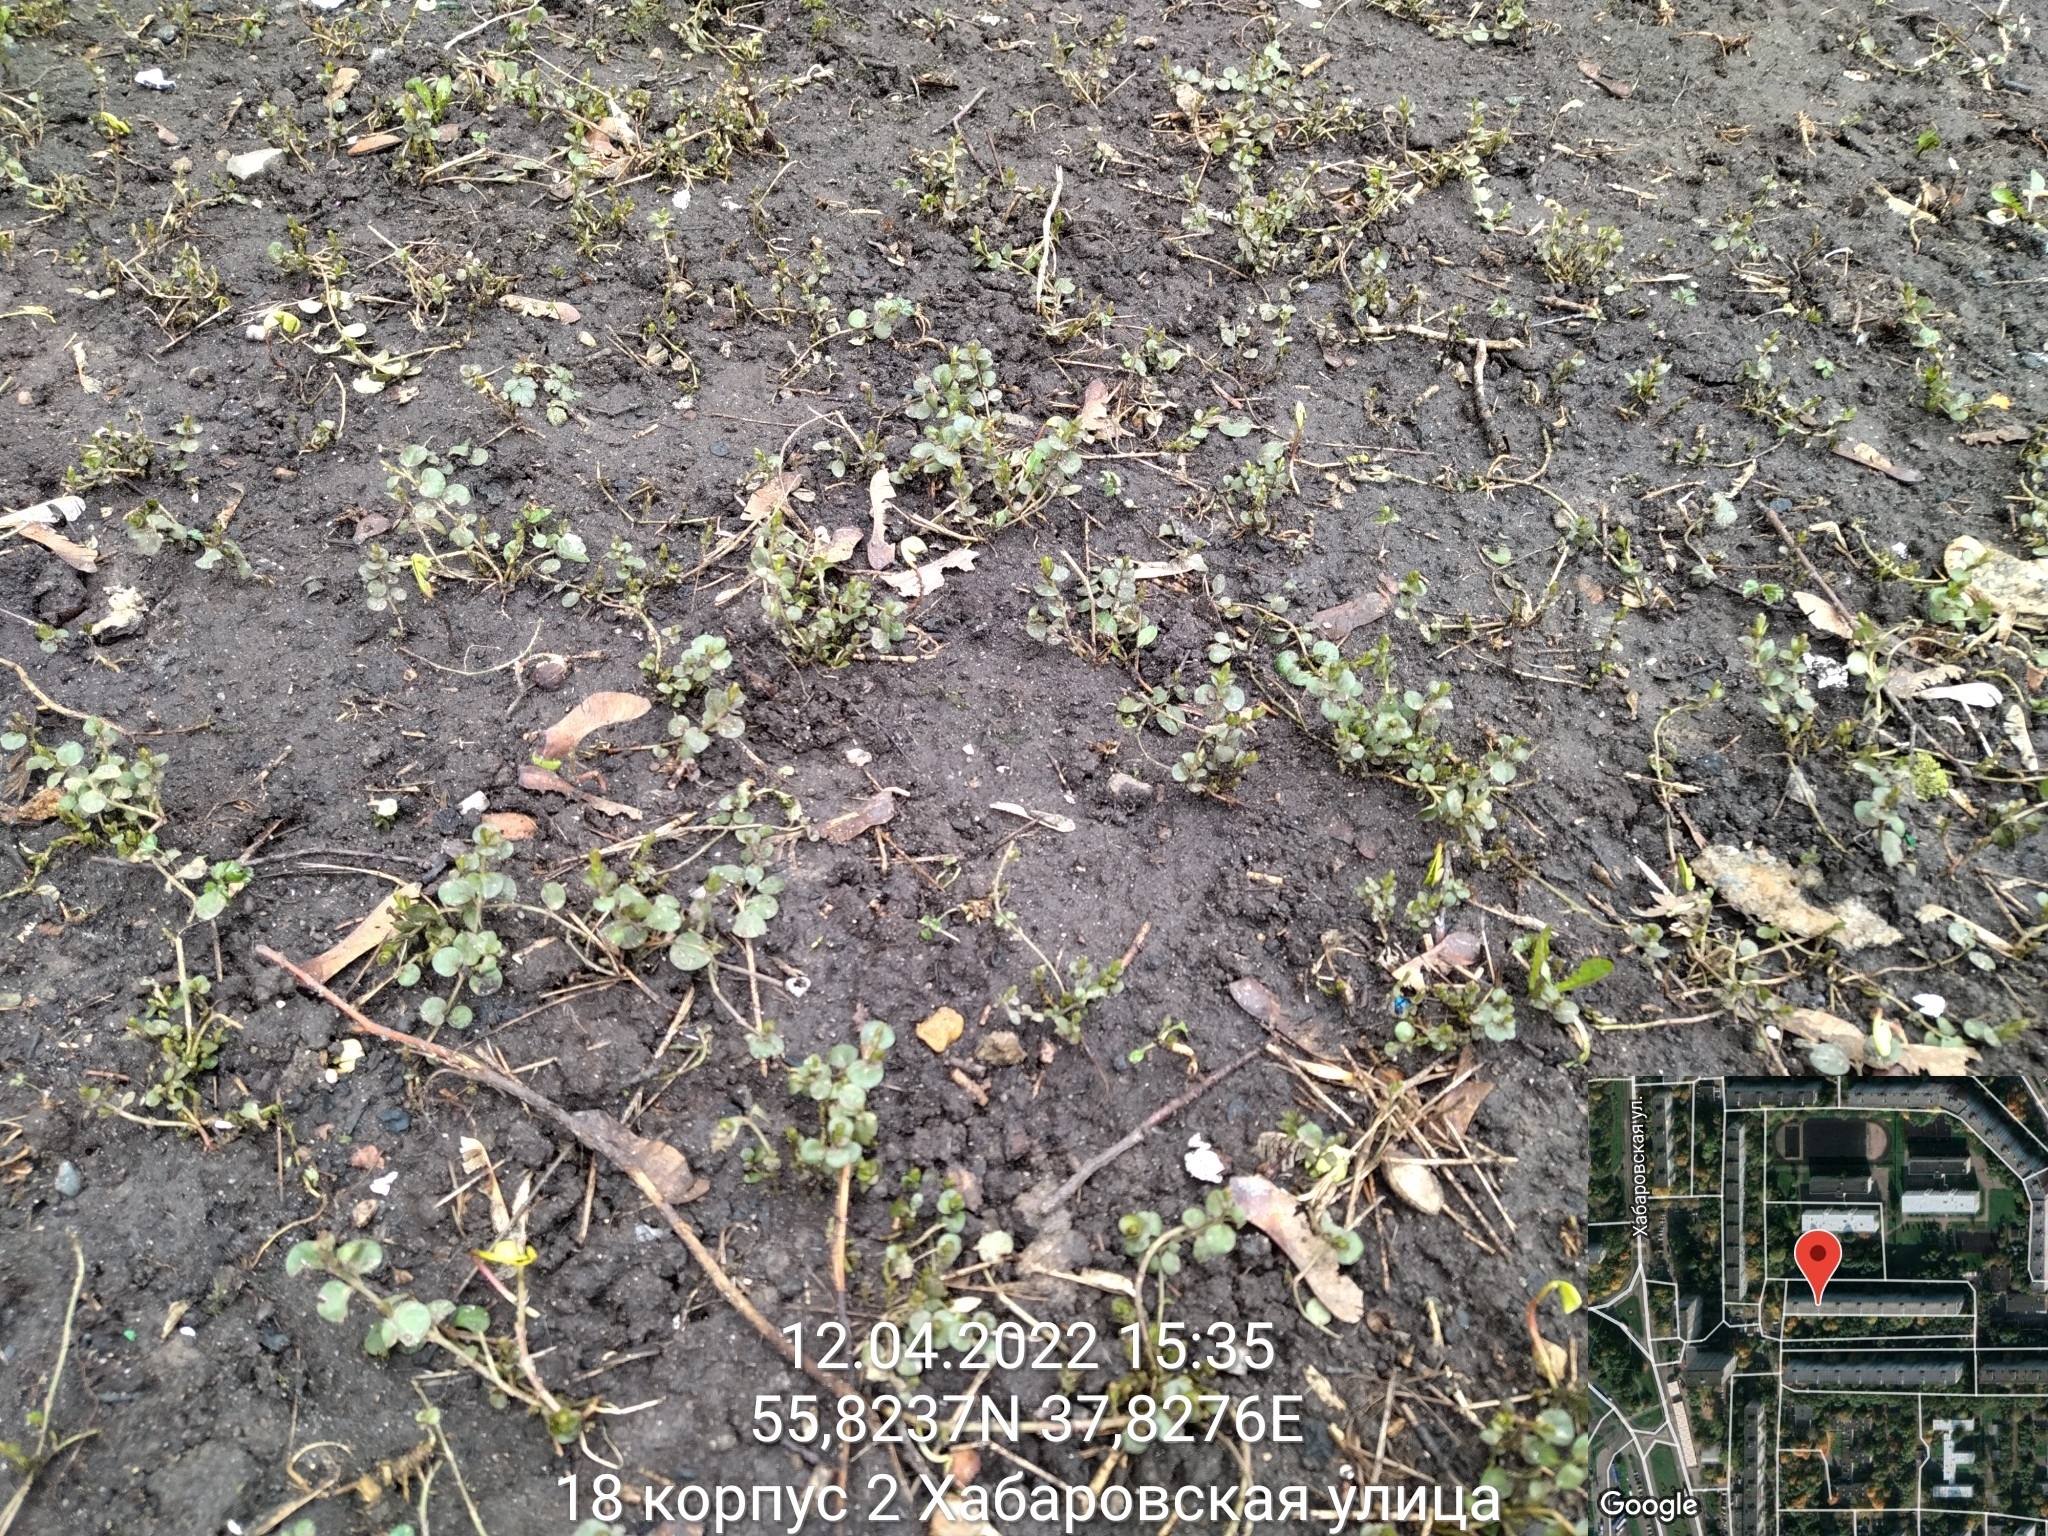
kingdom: Plantae
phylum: Tracheophyta
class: Magnoliopsida
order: Ericales
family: Primulaceae
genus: Lysimachia
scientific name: Lysimachia nummularia
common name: Moneywort
